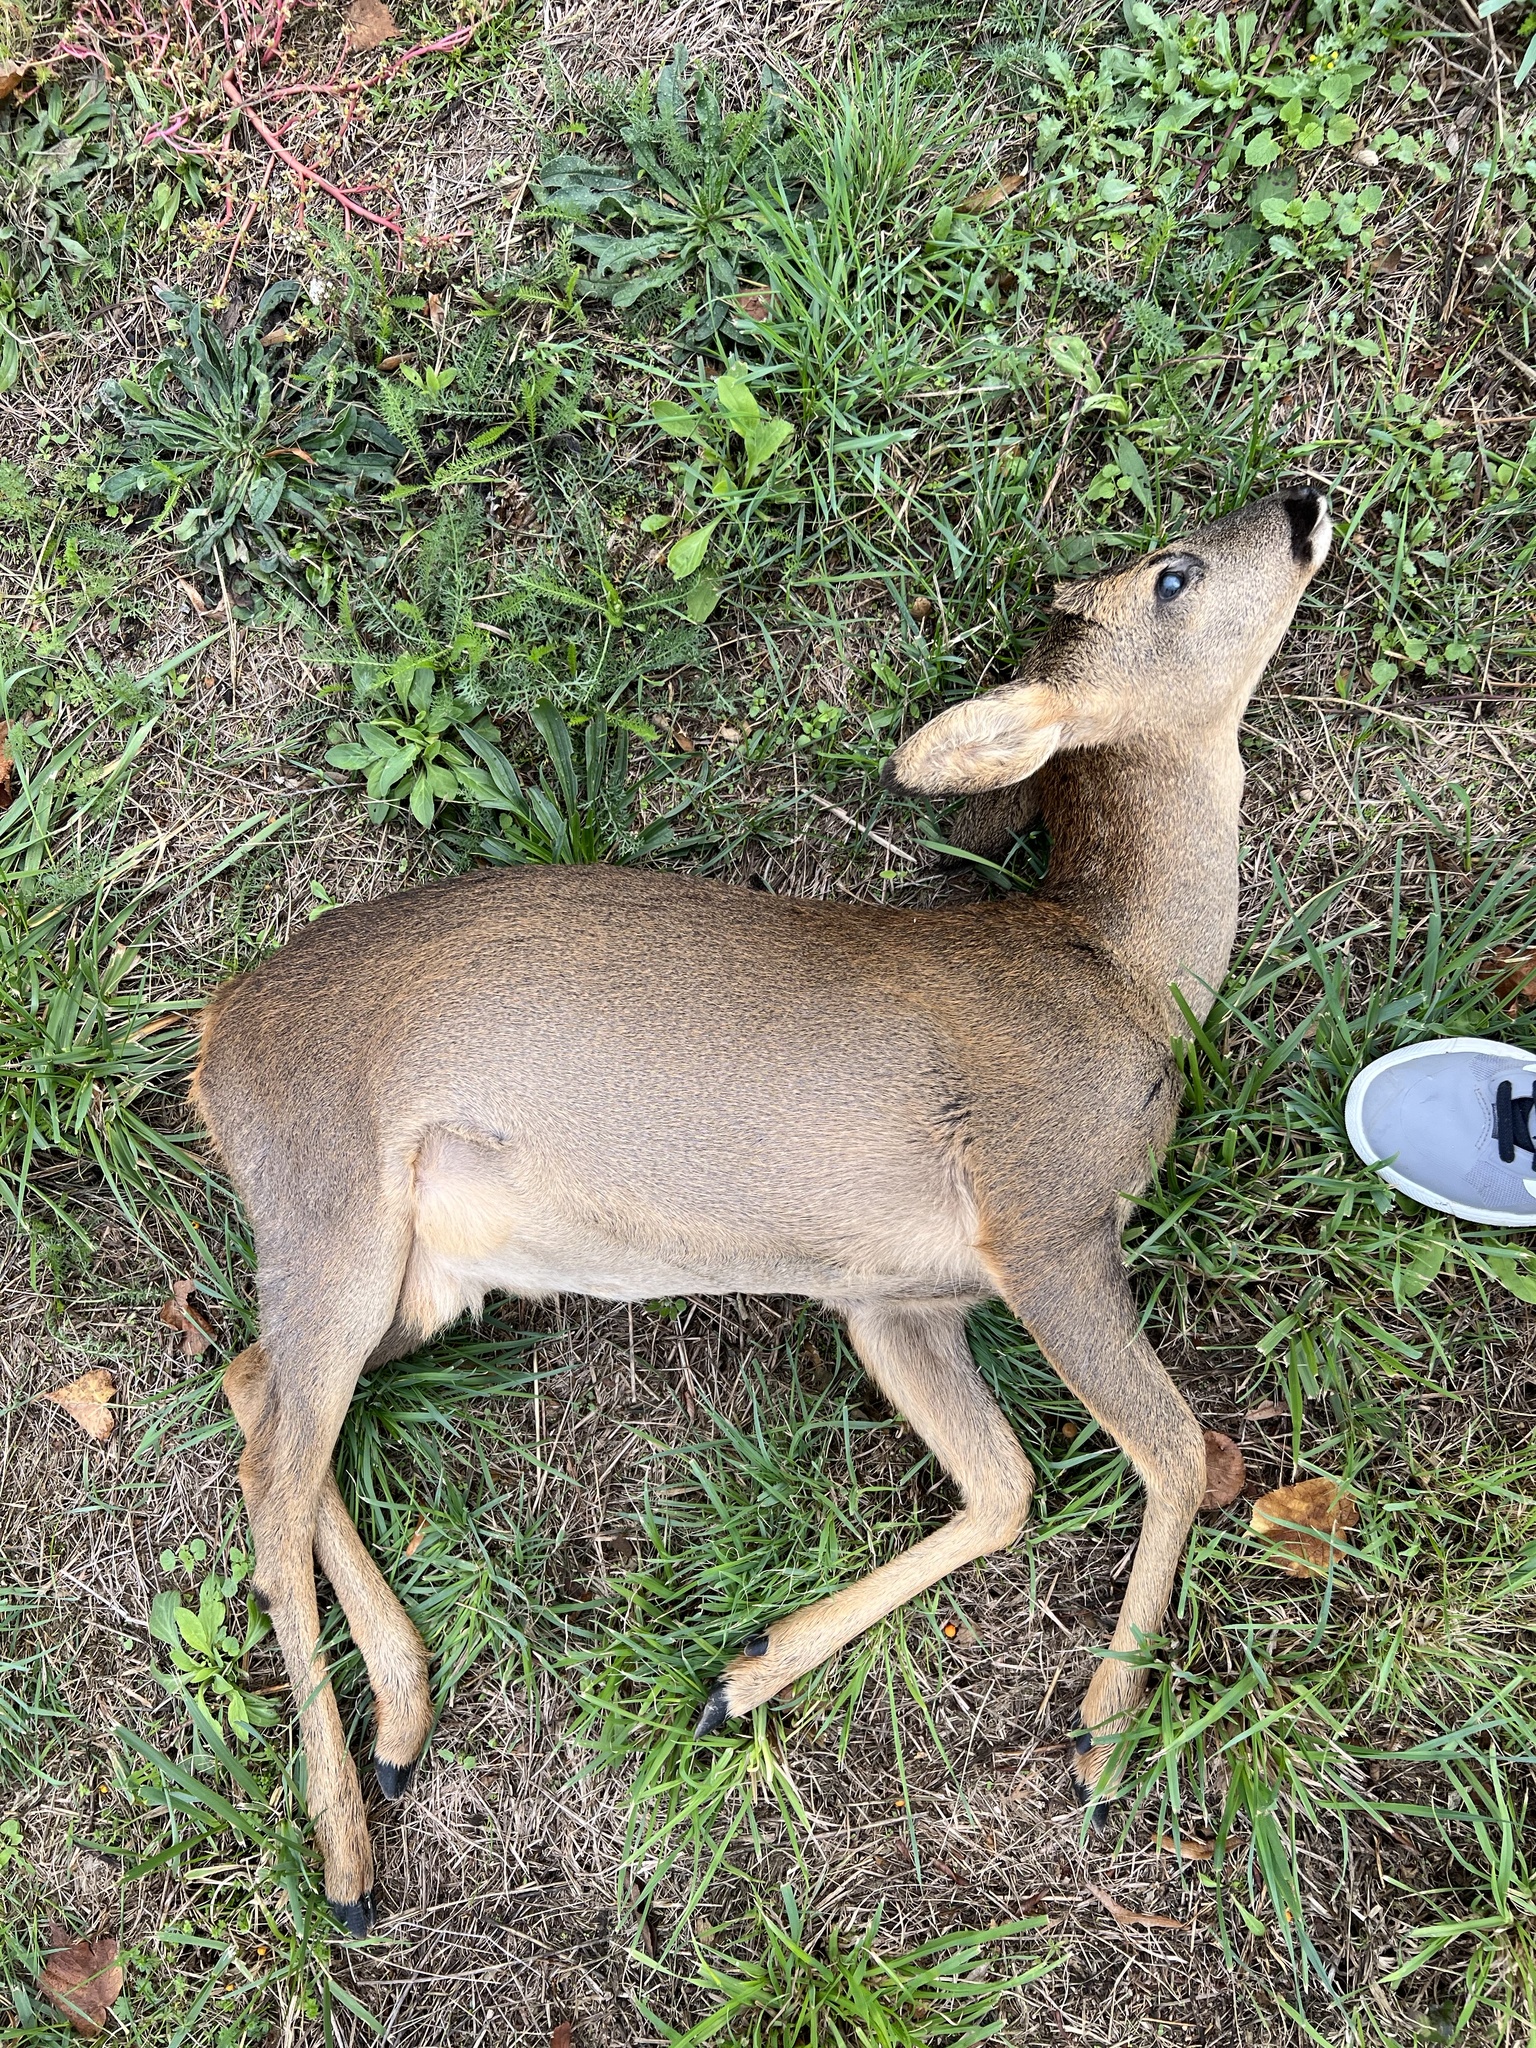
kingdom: Animalia
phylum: Chordata
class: Mammalia
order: Artiodactyla
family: Cervidae
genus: Capreolus
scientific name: Capreolus capreolus
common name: Western roe deer
